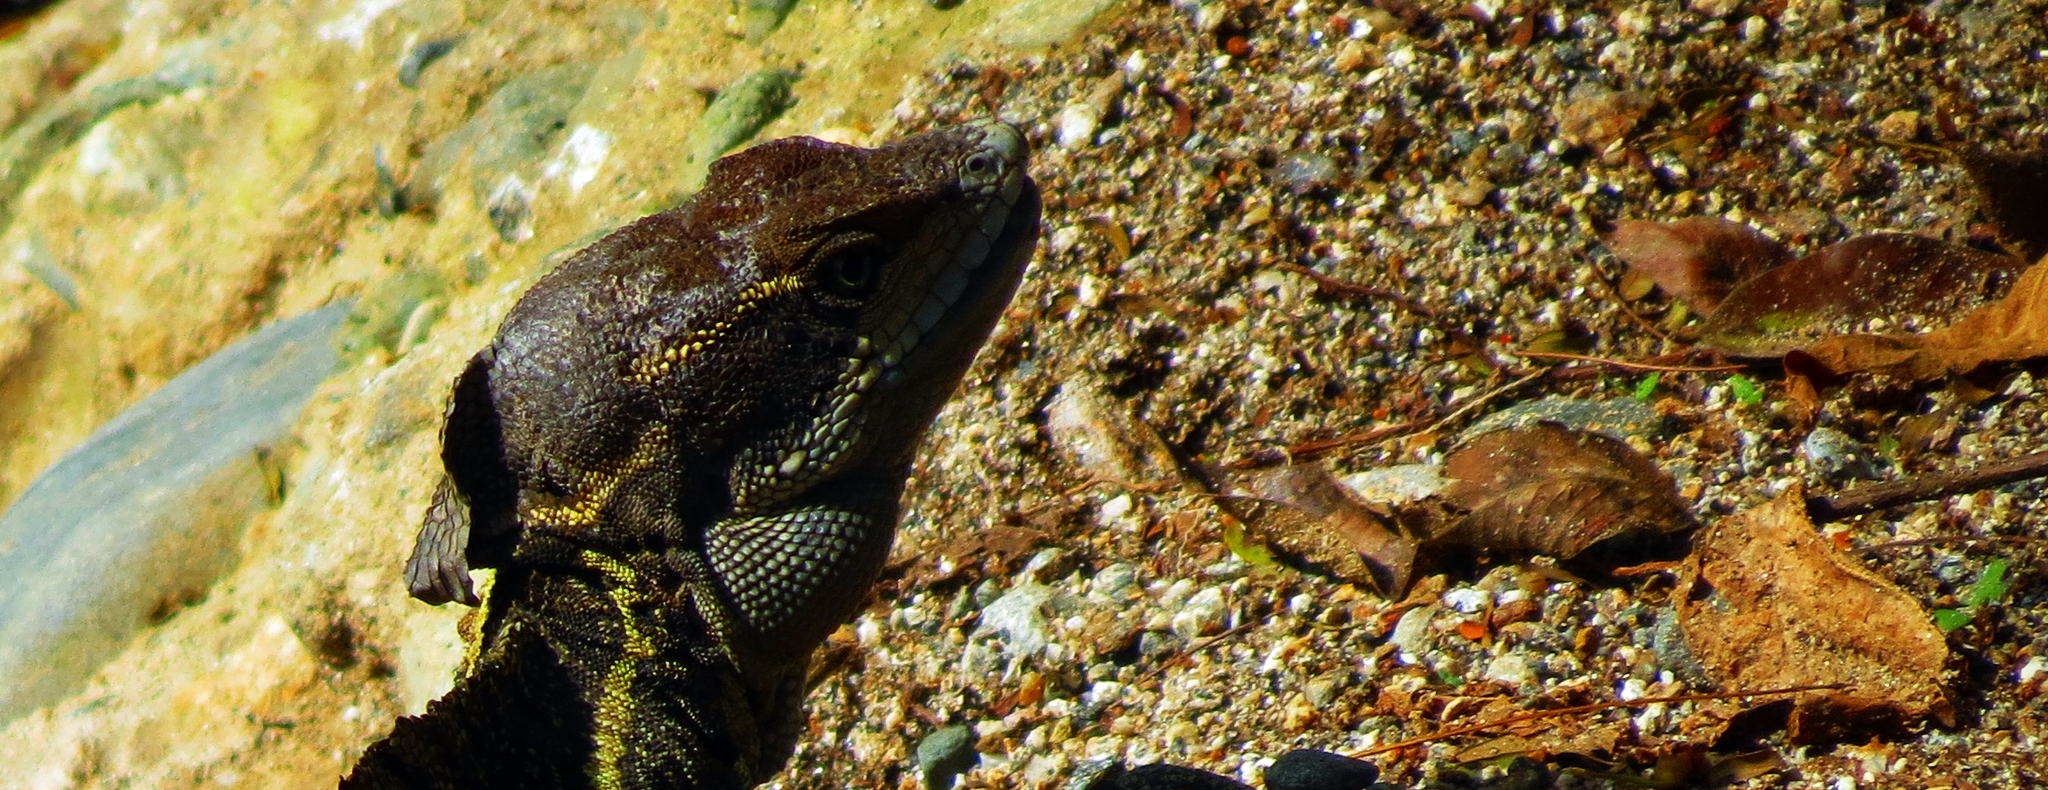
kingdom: Animalia
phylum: Chordata
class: Squamata
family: Corytophanidae
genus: Basiliscus
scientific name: Basiliscus basiliscus
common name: Common basilisk
